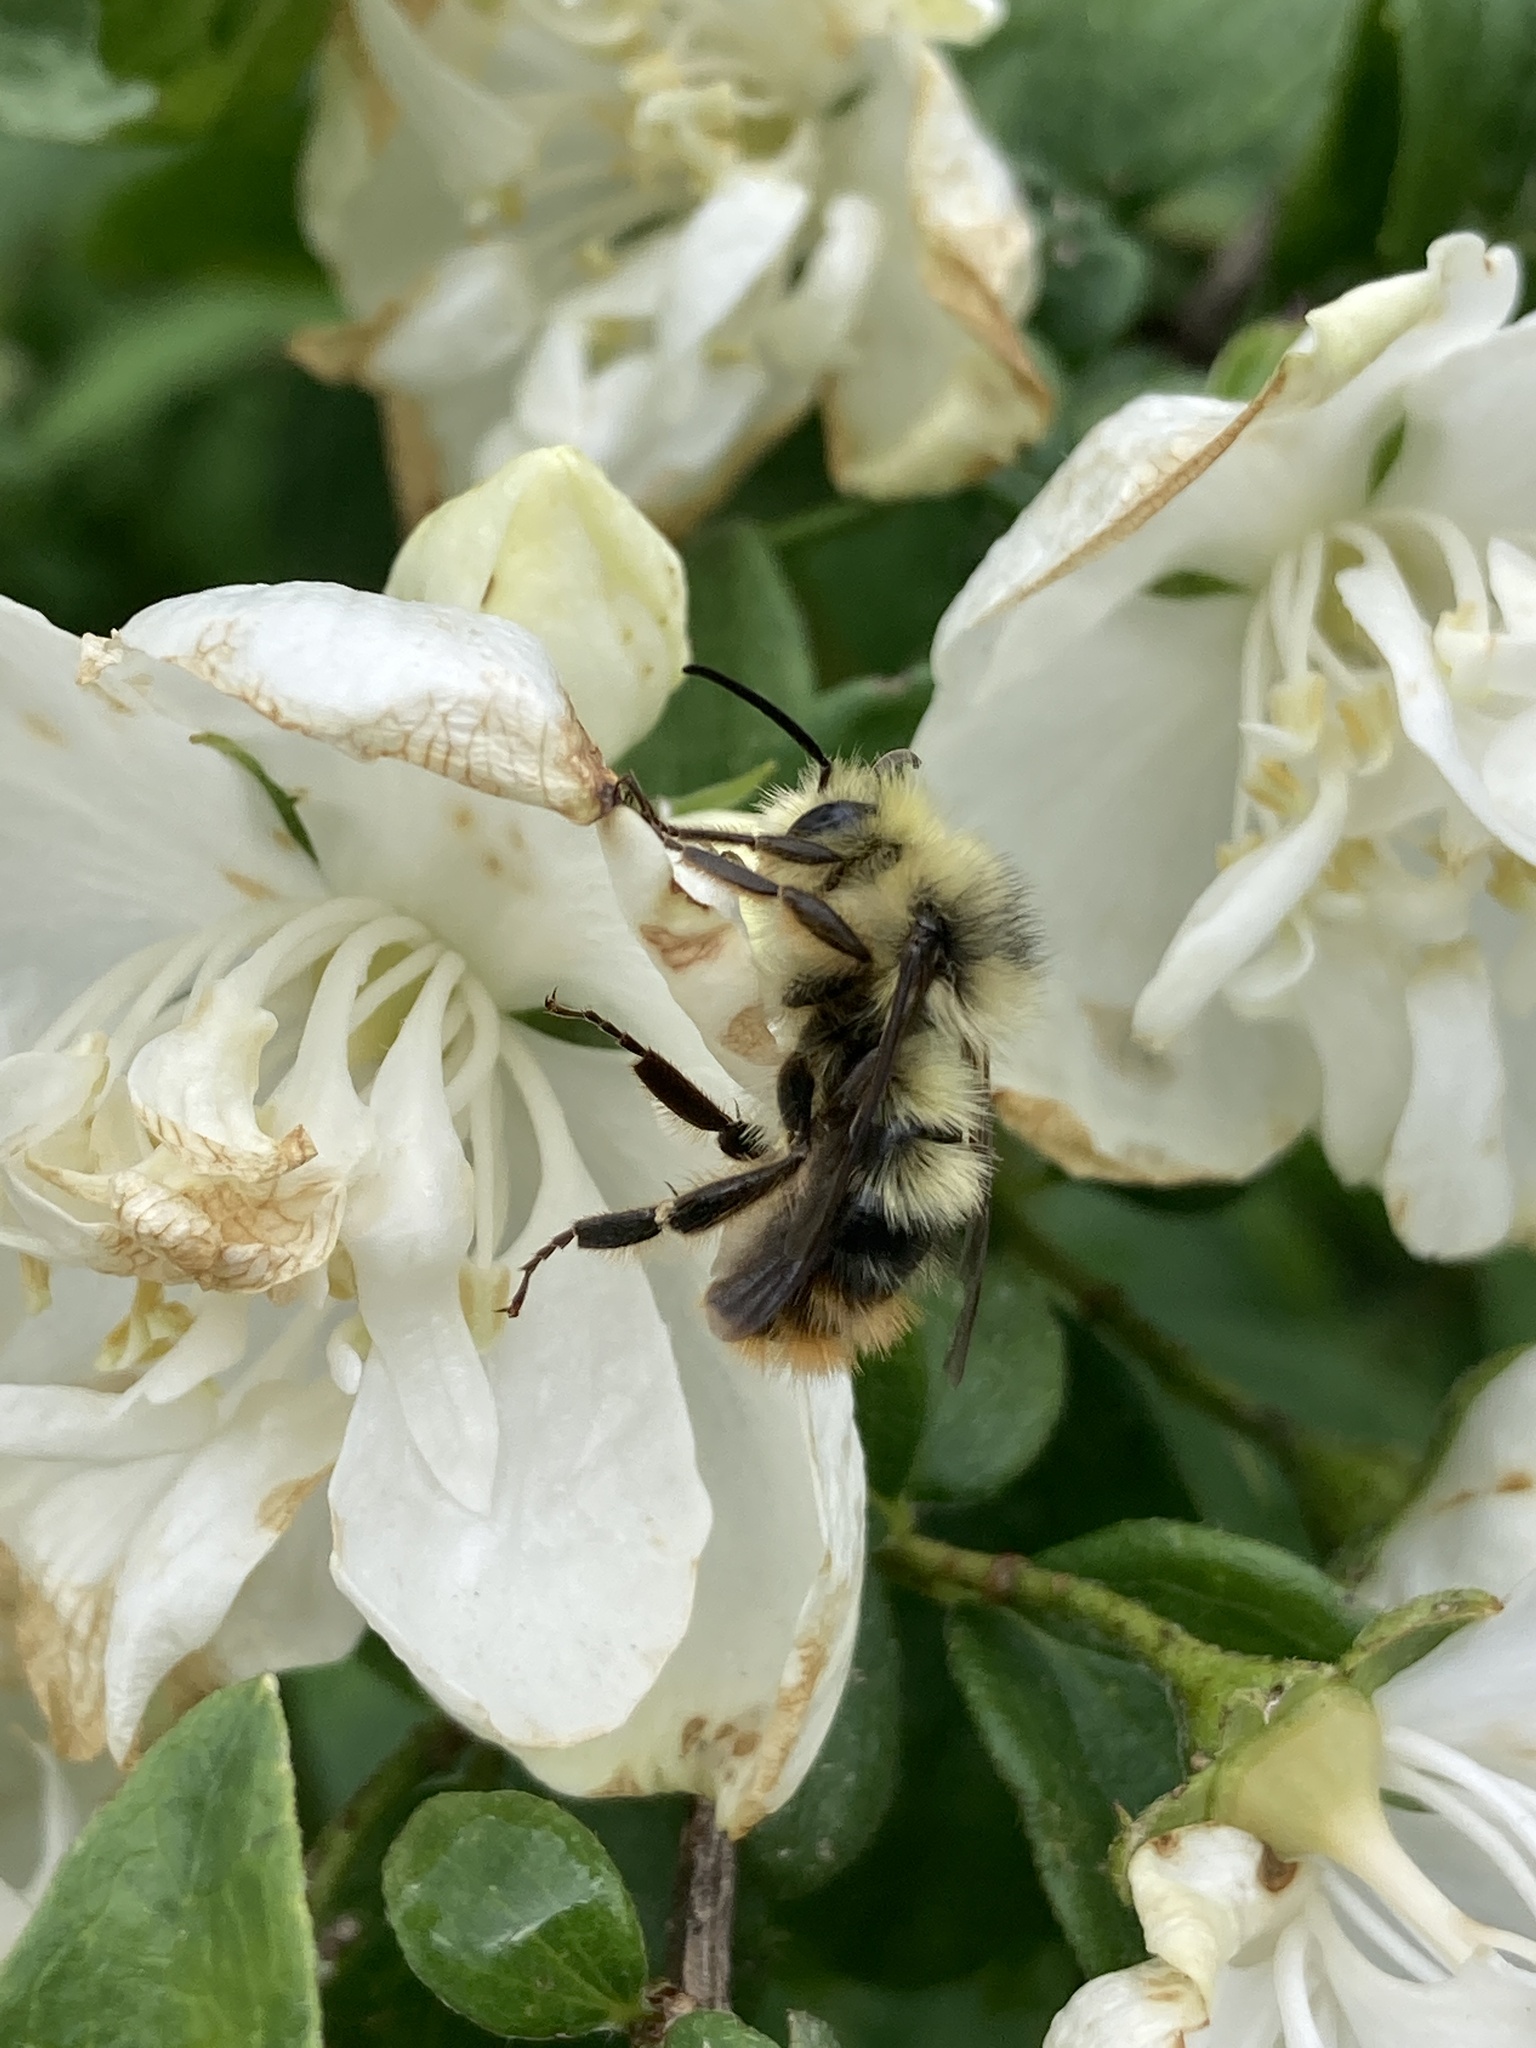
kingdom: Animalia
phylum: Arthropoda
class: Insecta
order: Hymenoptera
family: Apidae
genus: Bombus
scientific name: Bombus mixtus
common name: Fuzzy-horned bumble bee
